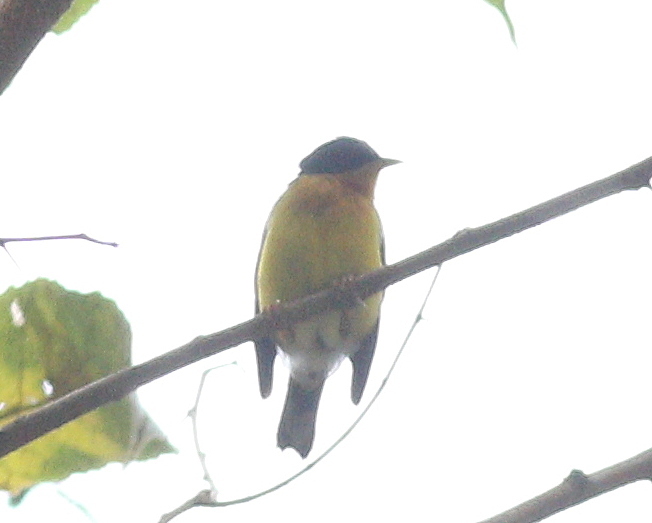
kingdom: Animalia
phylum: Chordata
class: Aves
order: Passeriformes
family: Parulidae
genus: Setophaga
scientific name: Setophaga pitiayumi
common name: Tropical parula
